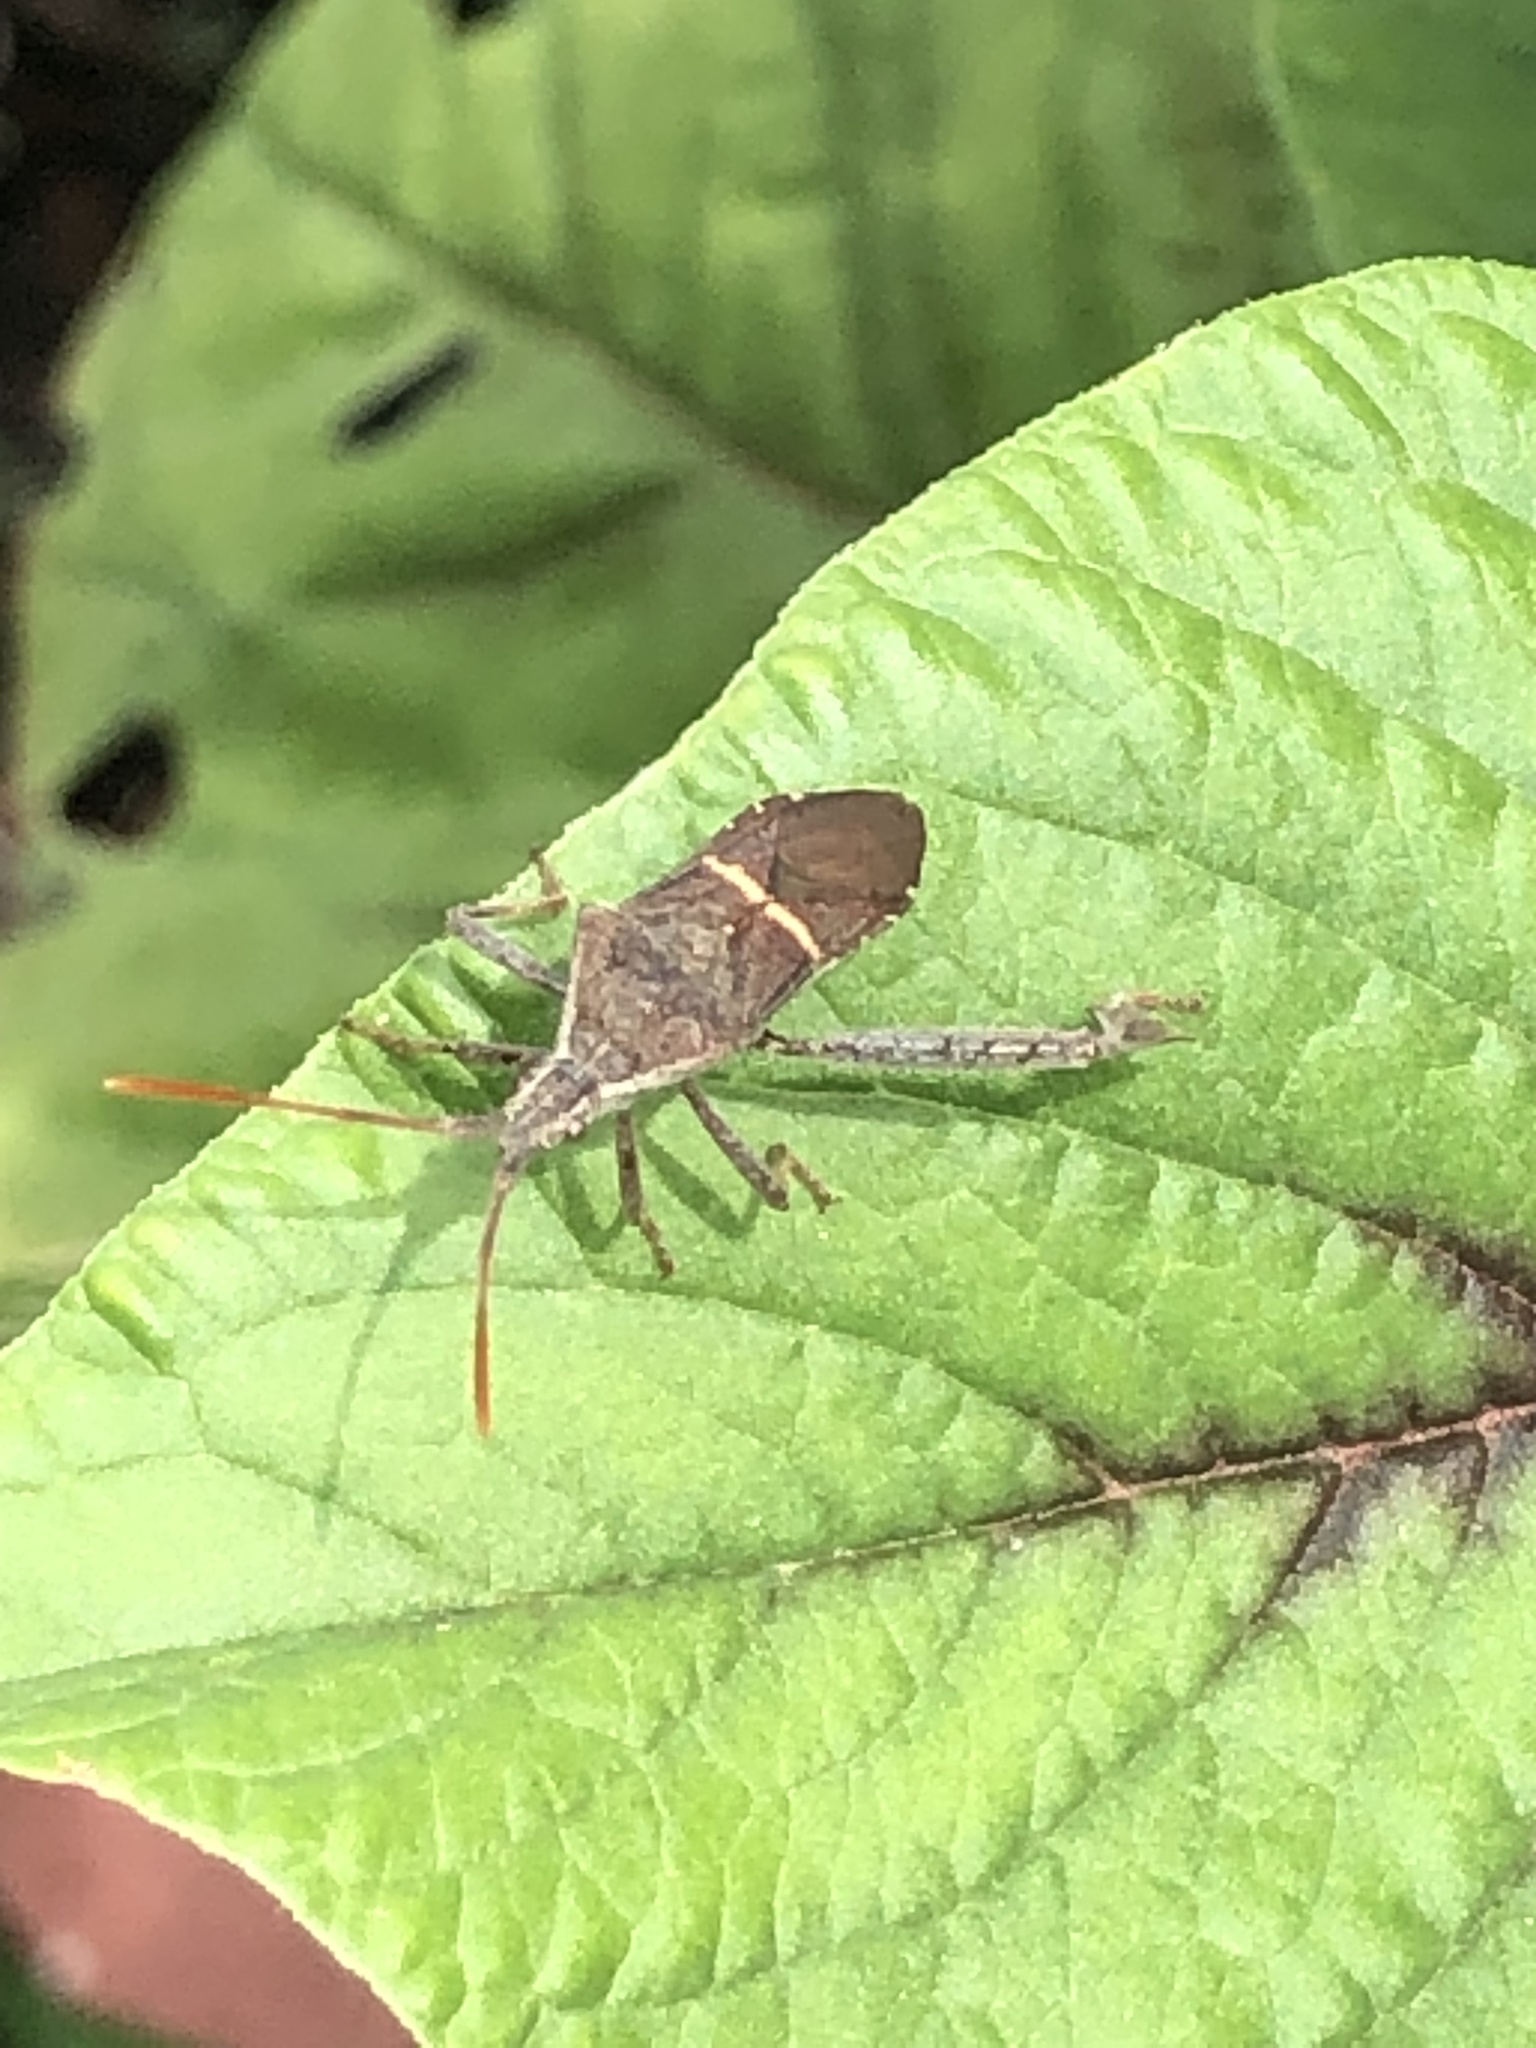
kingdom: Animalia
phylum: Arthropoda
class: Insecta
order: Hemiptera
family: Coreidae
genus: Leptoglossus
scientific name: Leptoglossus phyllopus
